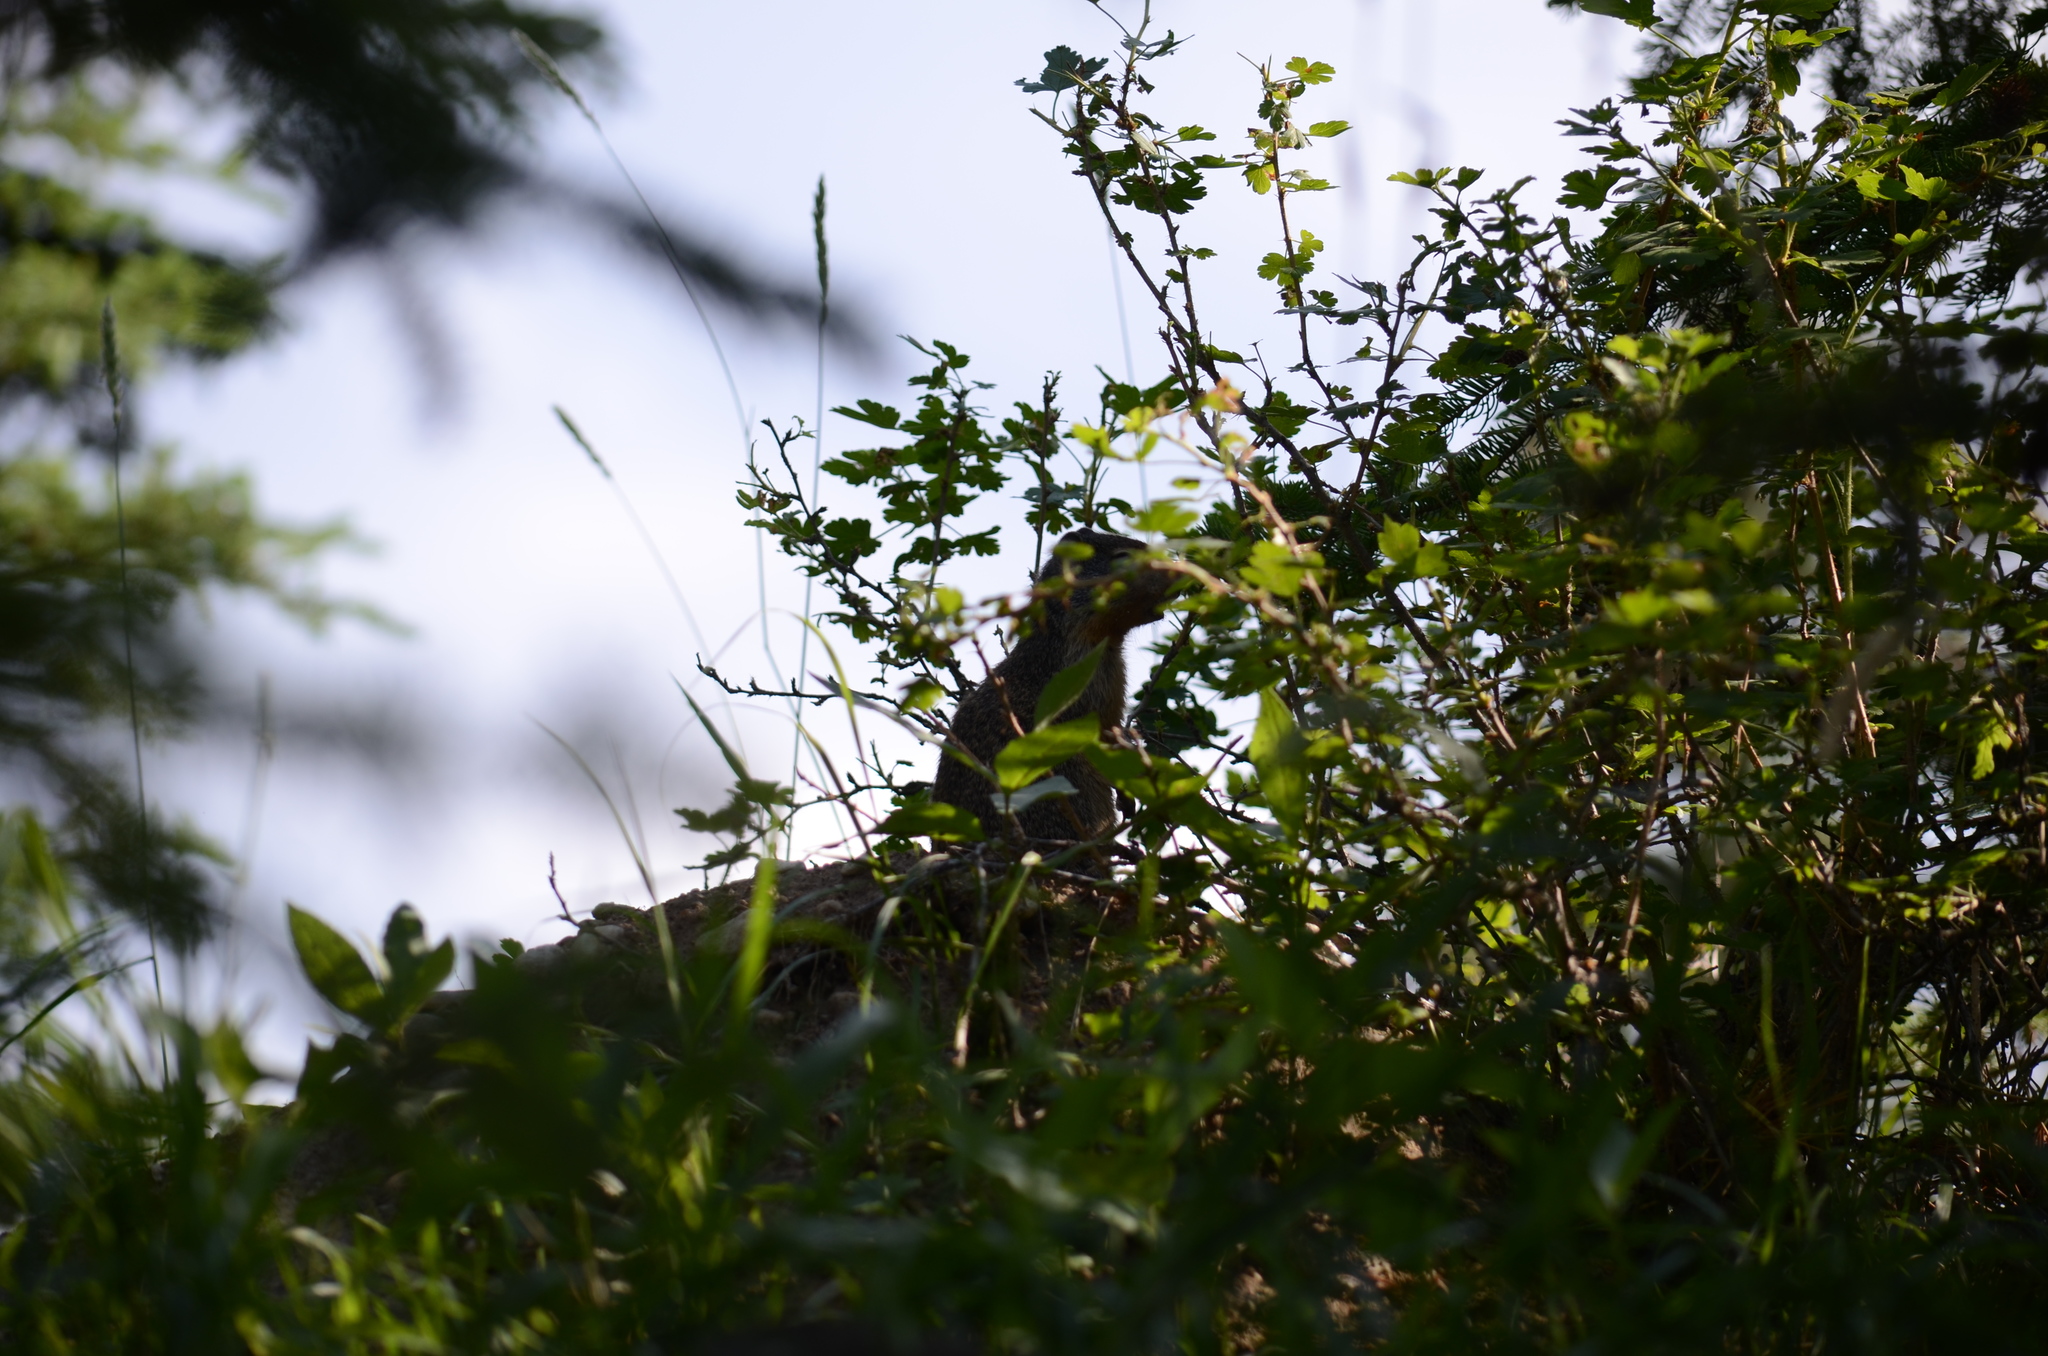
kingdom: Animalia
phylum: Chordata
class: Mammalia
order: Rodentia
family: Sciuridae
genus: Urocitellus
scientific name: Urocitellus columbianus
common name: Columbian ground squirrel
